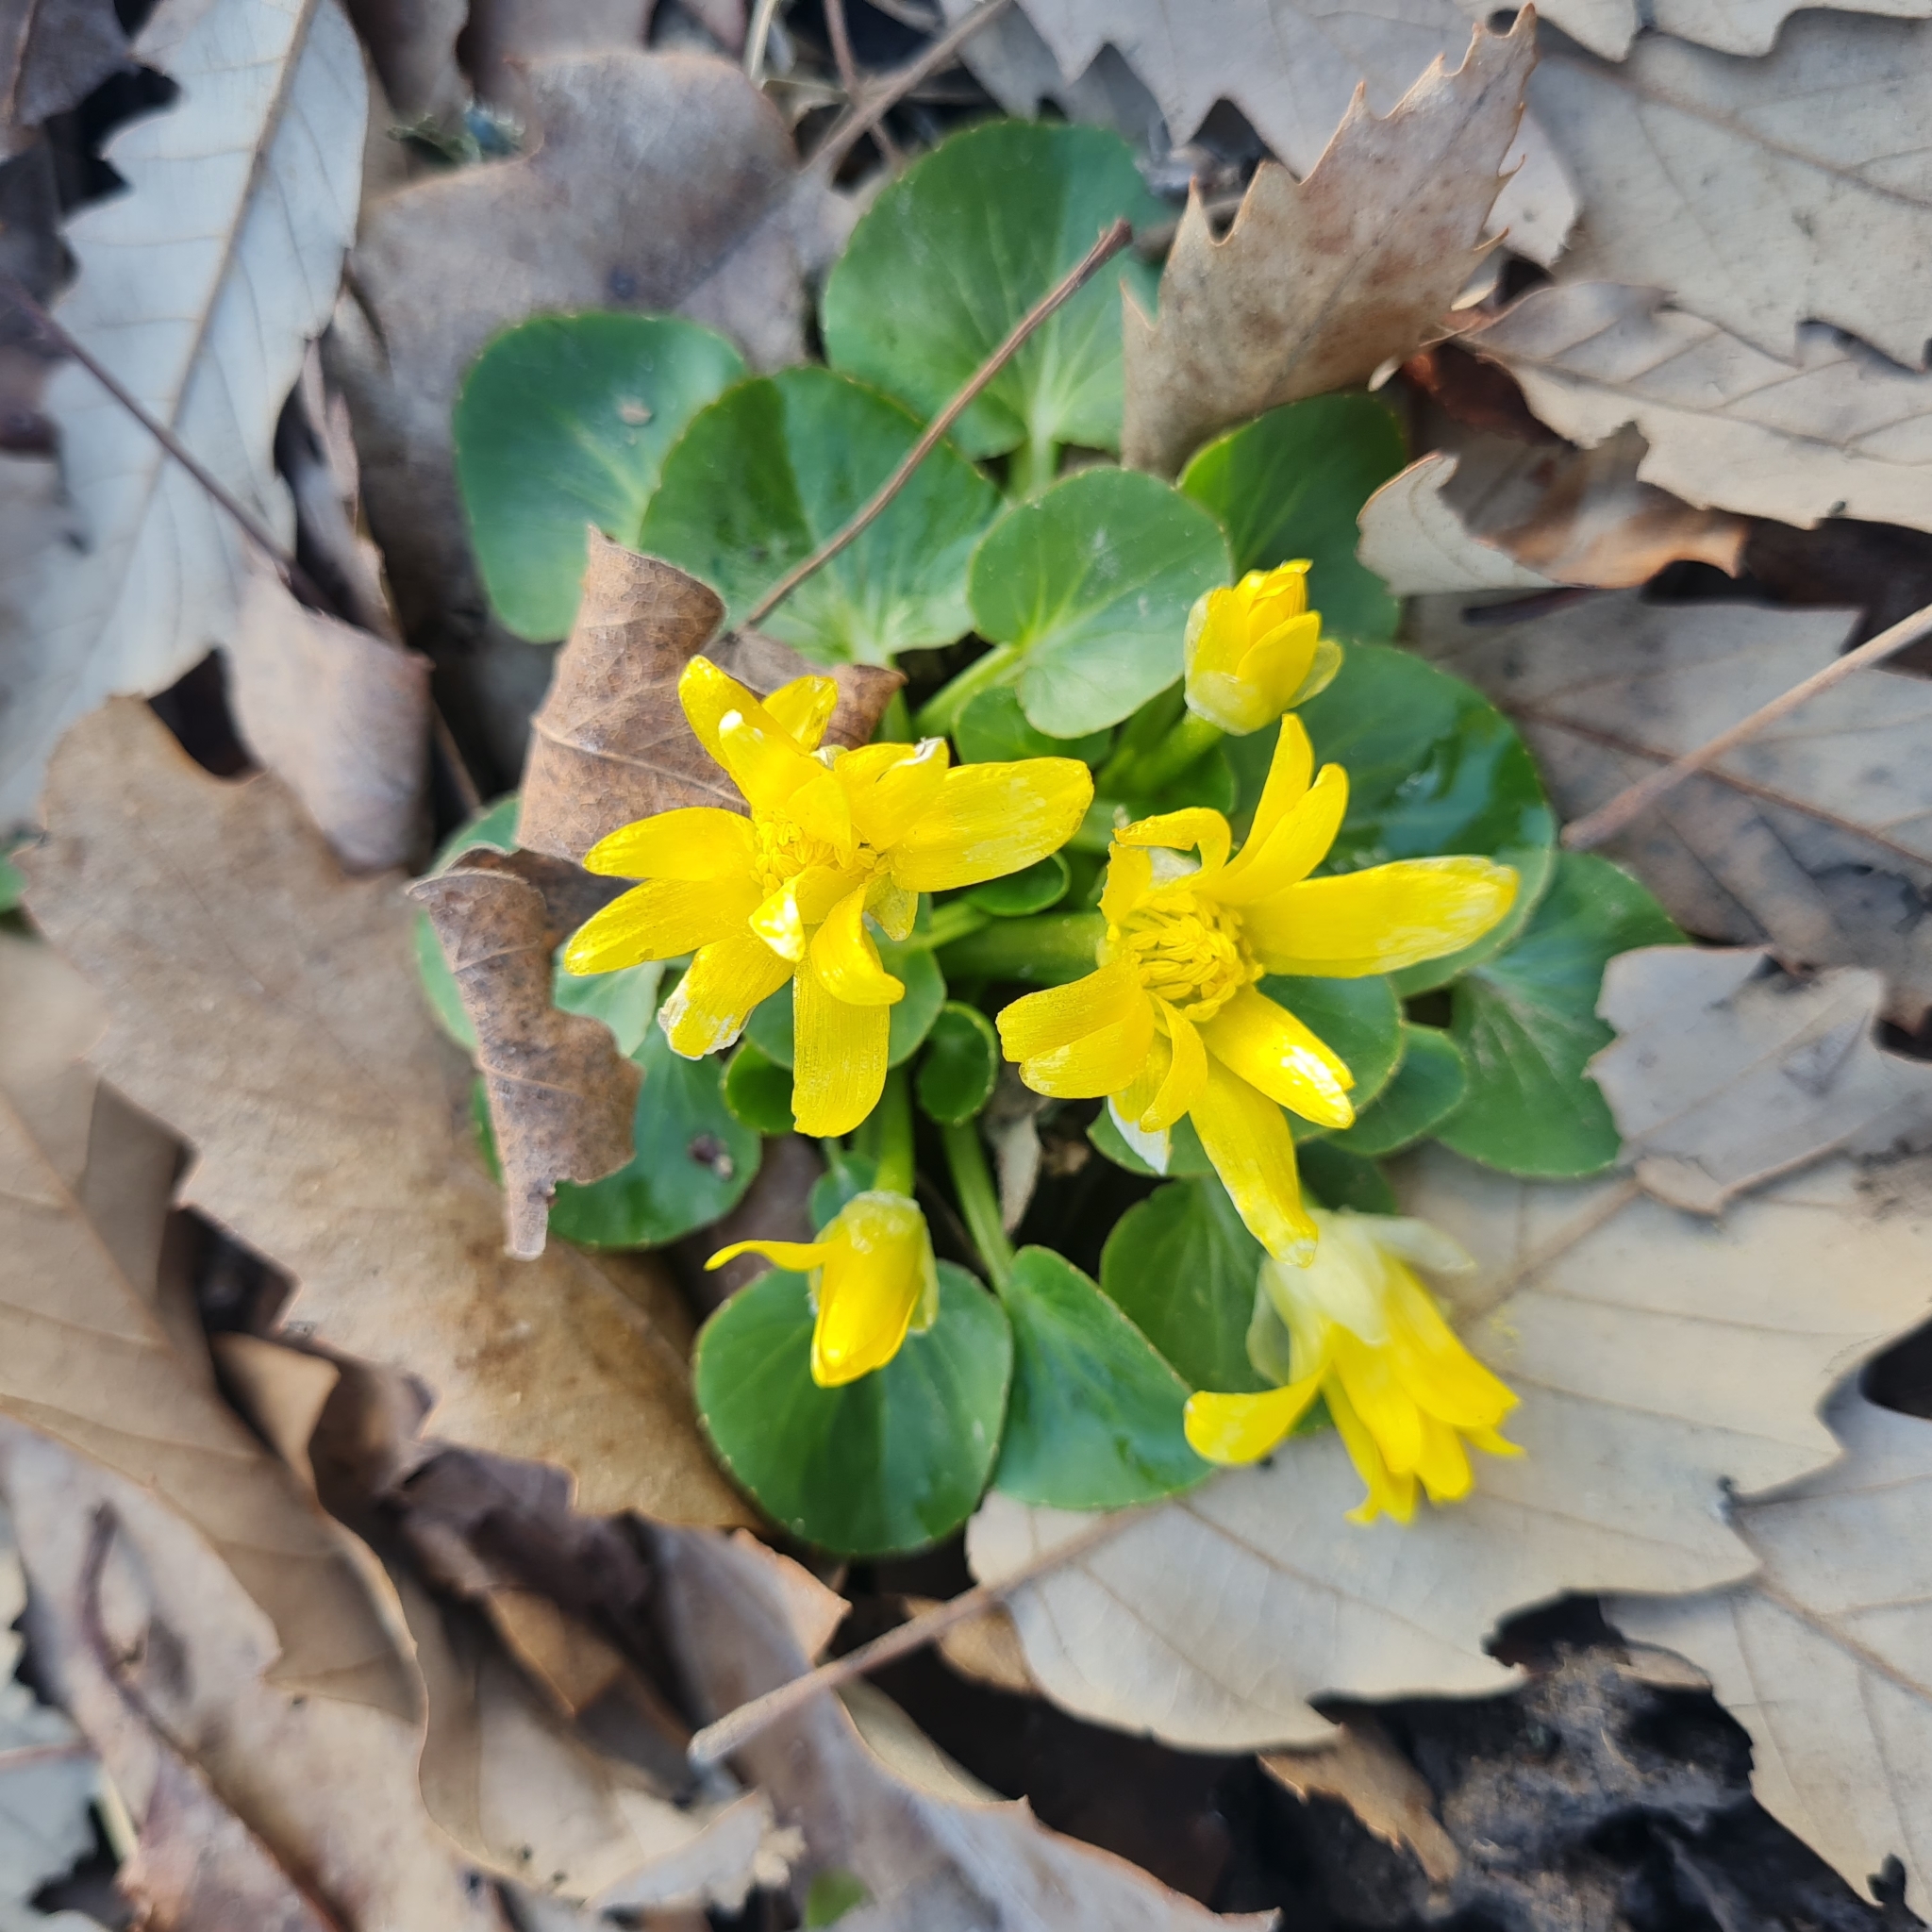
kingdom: Plantae
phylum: Tracheophyta
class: Magnoliopsida
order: Ranunculales
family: Ranunculaceae
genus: Ficaria
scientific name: Ficaria kochii
